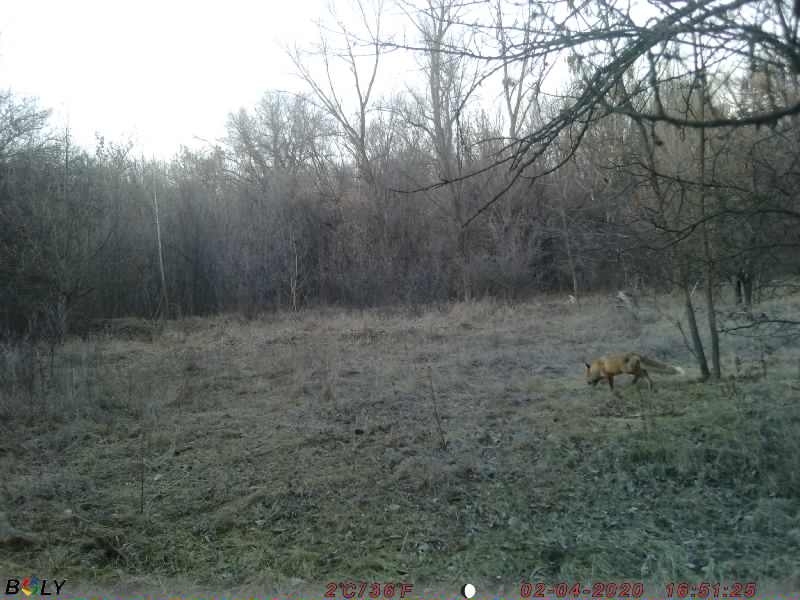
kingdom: Animalia
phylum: Chordata
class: Mammalia
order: Carnivora
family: Canidae
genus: Vulpes
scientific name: Vulpes vulpes
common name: Red fox
